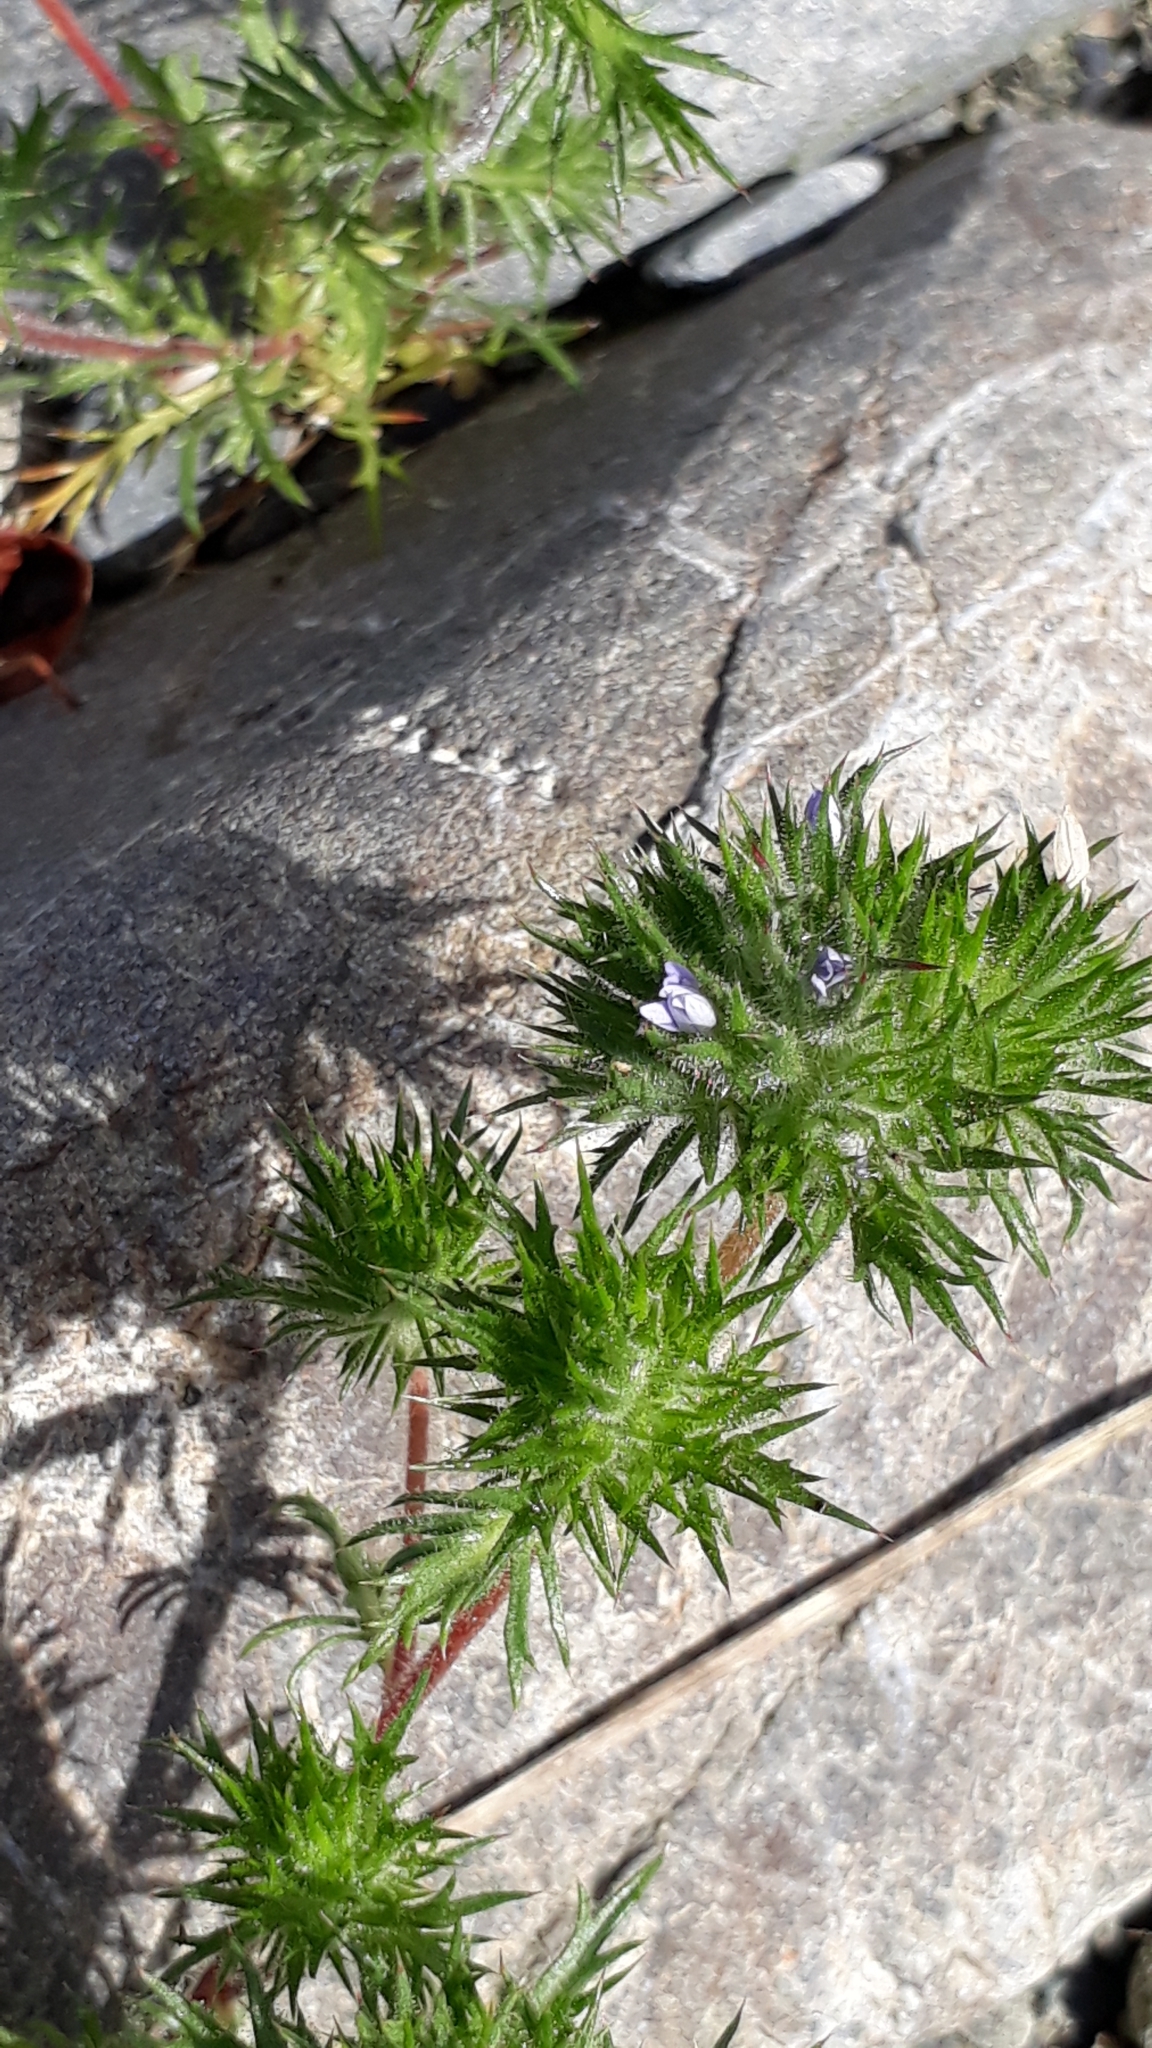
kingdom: Plantae
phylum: Tracheophyta
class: Magnoliopsida
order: Ericales
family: Polemoniaceae
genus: Navarretia
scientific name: Navarretia squarrosa
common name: Skunkweed
